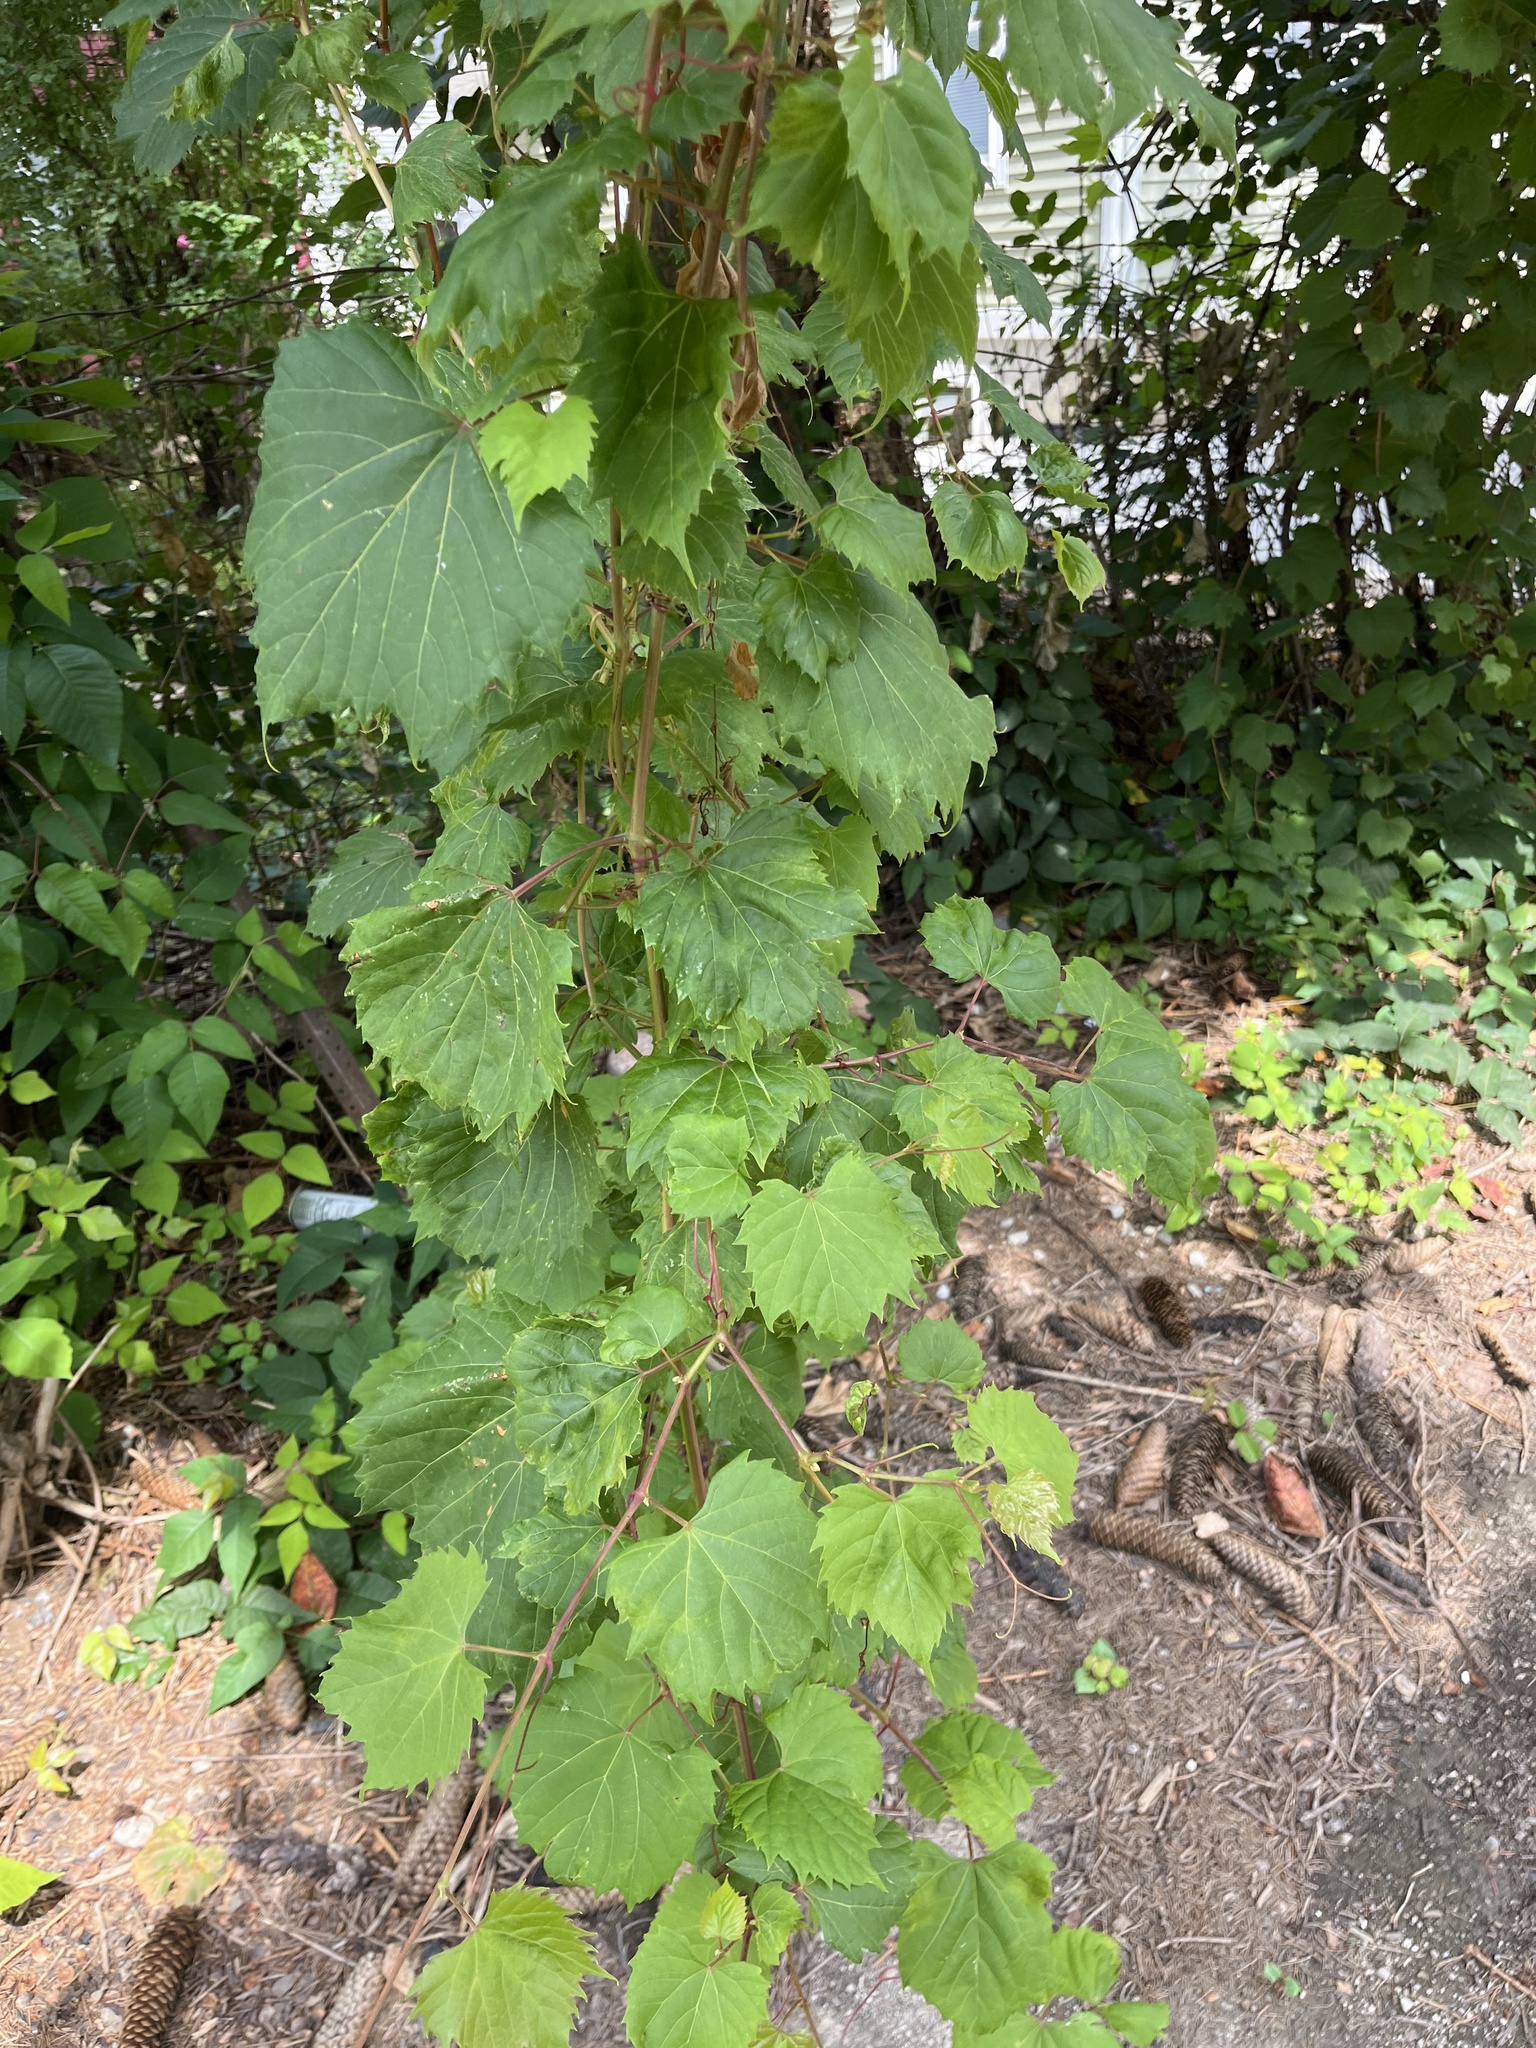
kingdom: Plantae
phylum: Tracheophyta
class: Magnoliopsida
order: Vitales
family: Vitaceae
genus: Vitis
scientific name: Vitis riparia
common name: Frost grape
